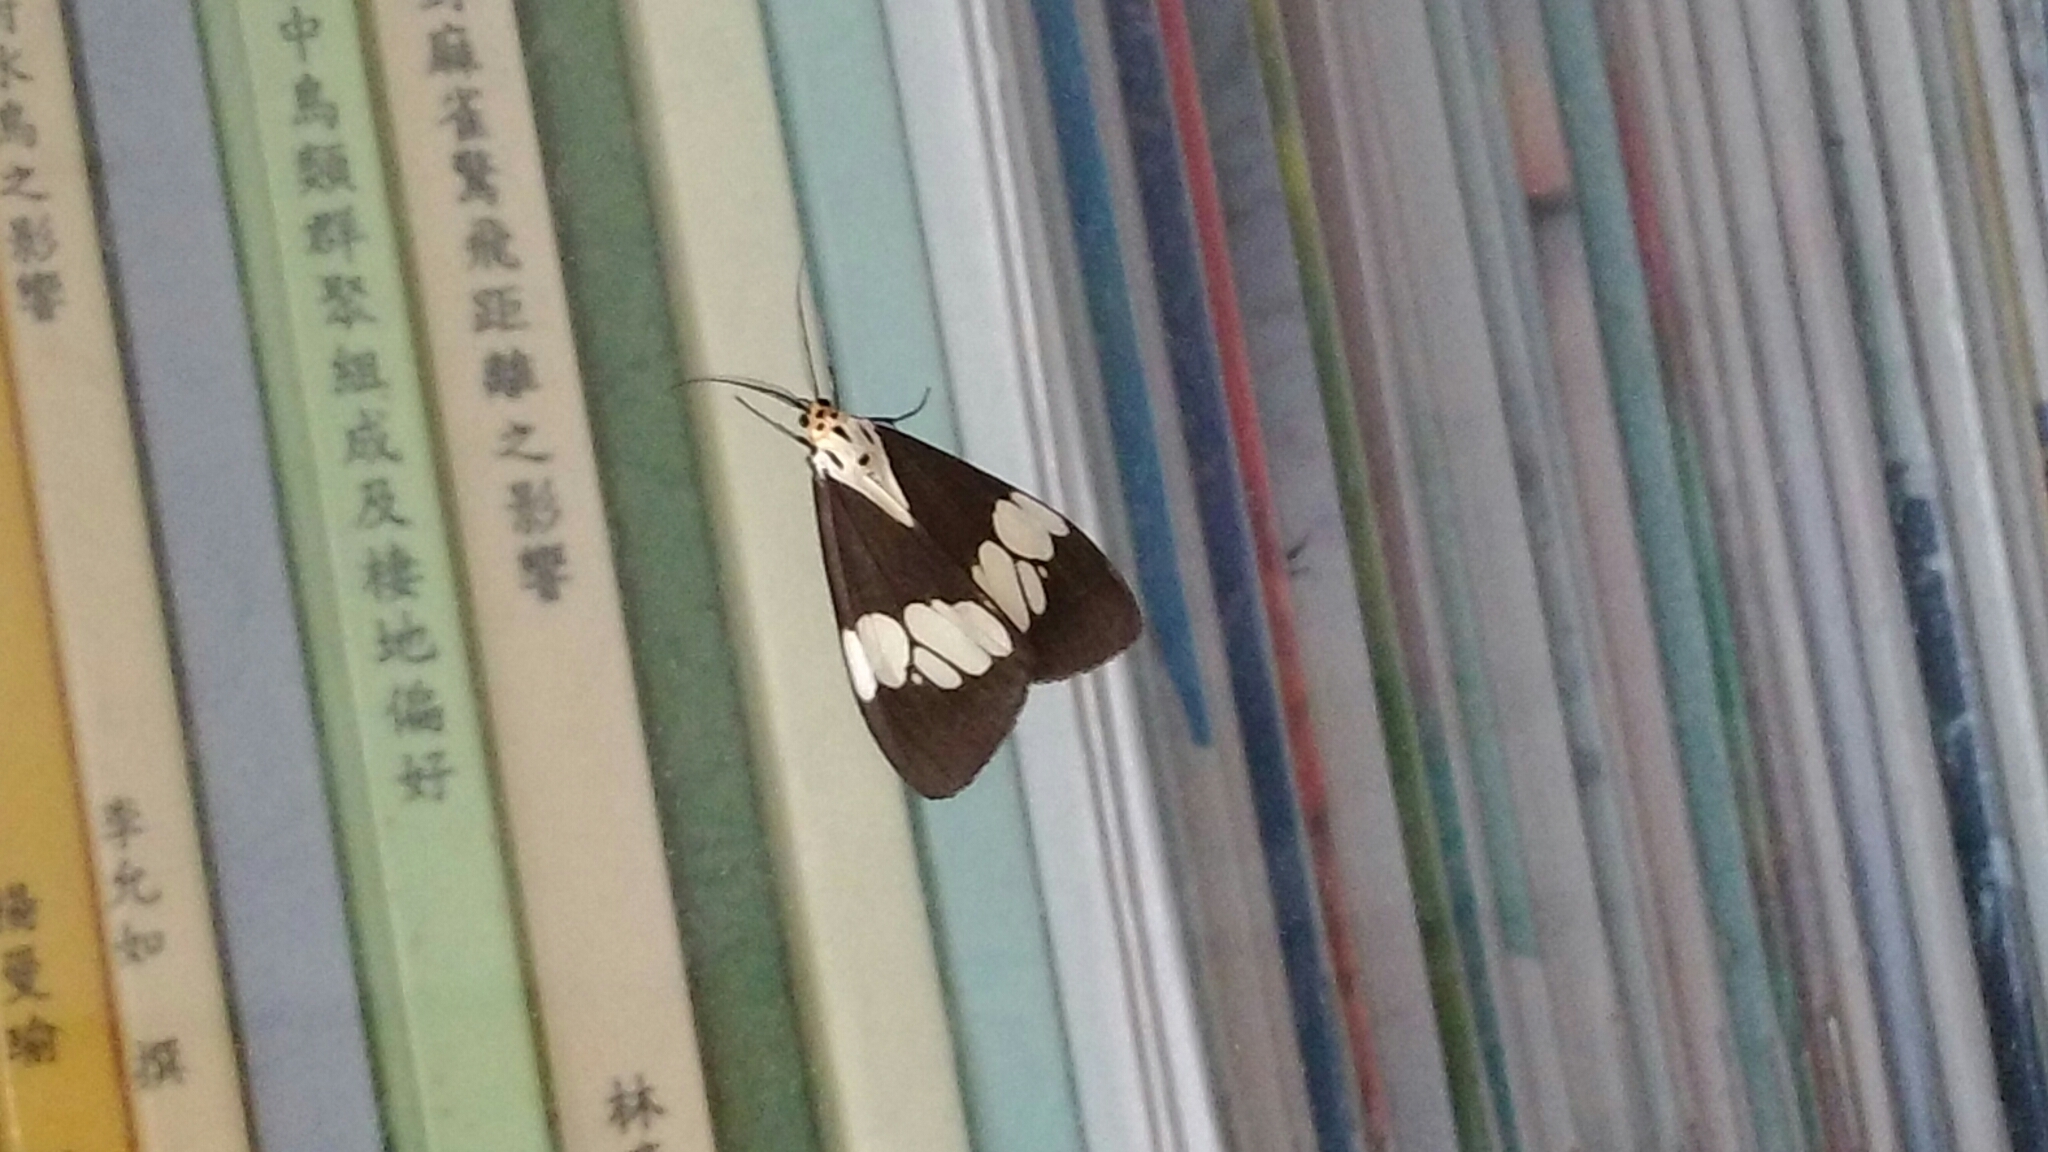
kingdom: Animalia
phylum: Arthropoda
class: Insecta
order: Lepidoptera
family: Erebidae
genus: Nyctemera
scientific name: Nyctemera lacticinia
